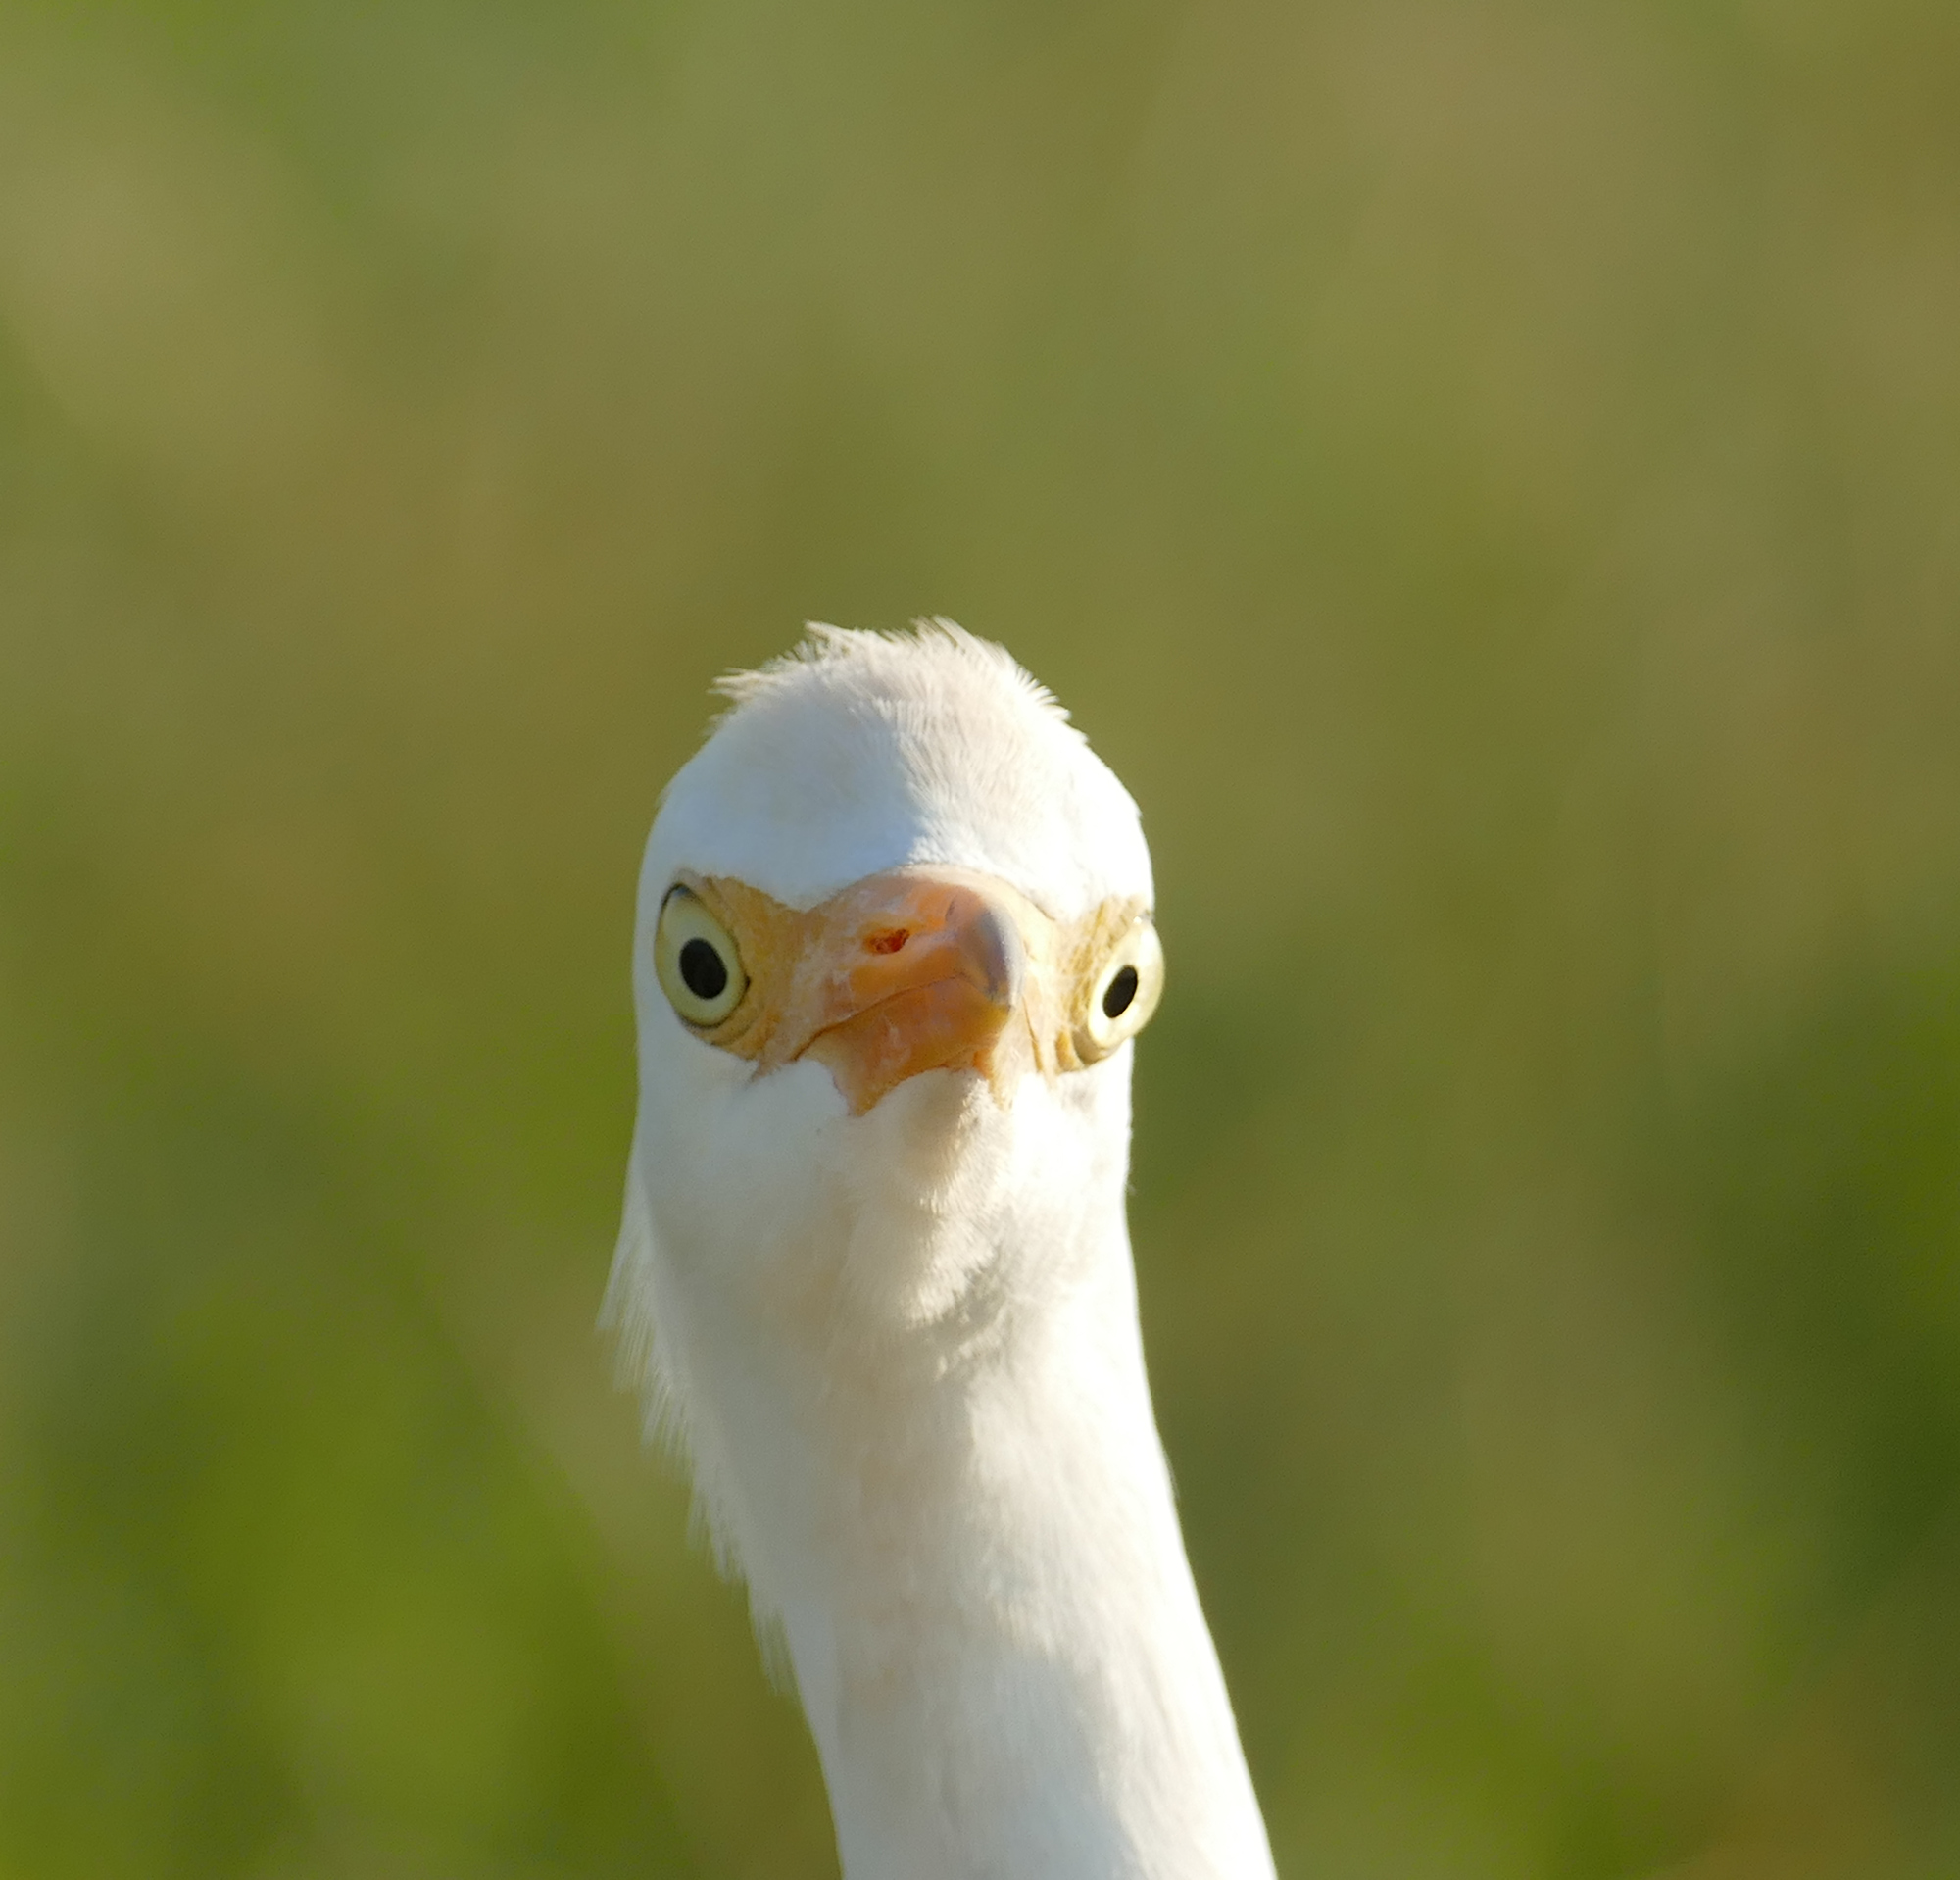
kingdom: Animalia
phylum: Chordata
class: Aves
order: Pelecaniformes
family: Ardeidae
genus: Bubulcus
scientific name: Bubulcus ibis
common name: Cattle egret
